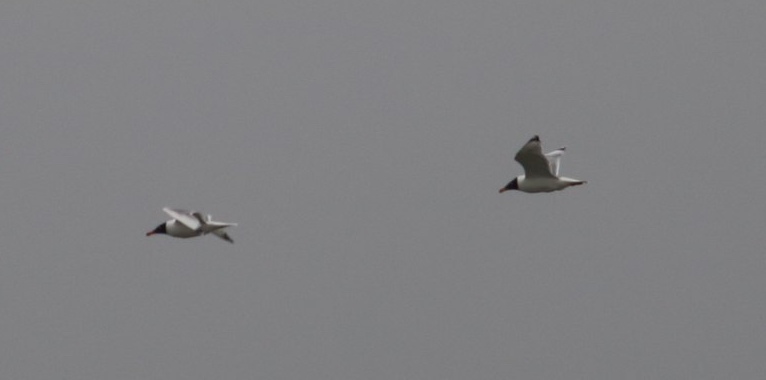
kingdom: Animalia
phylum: Chordata
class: Aves
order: Charadriiformes
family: Laridae
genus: Ichthyaetus
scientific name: Ichthyaetus ichthyaetus
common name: Pallas's gull
